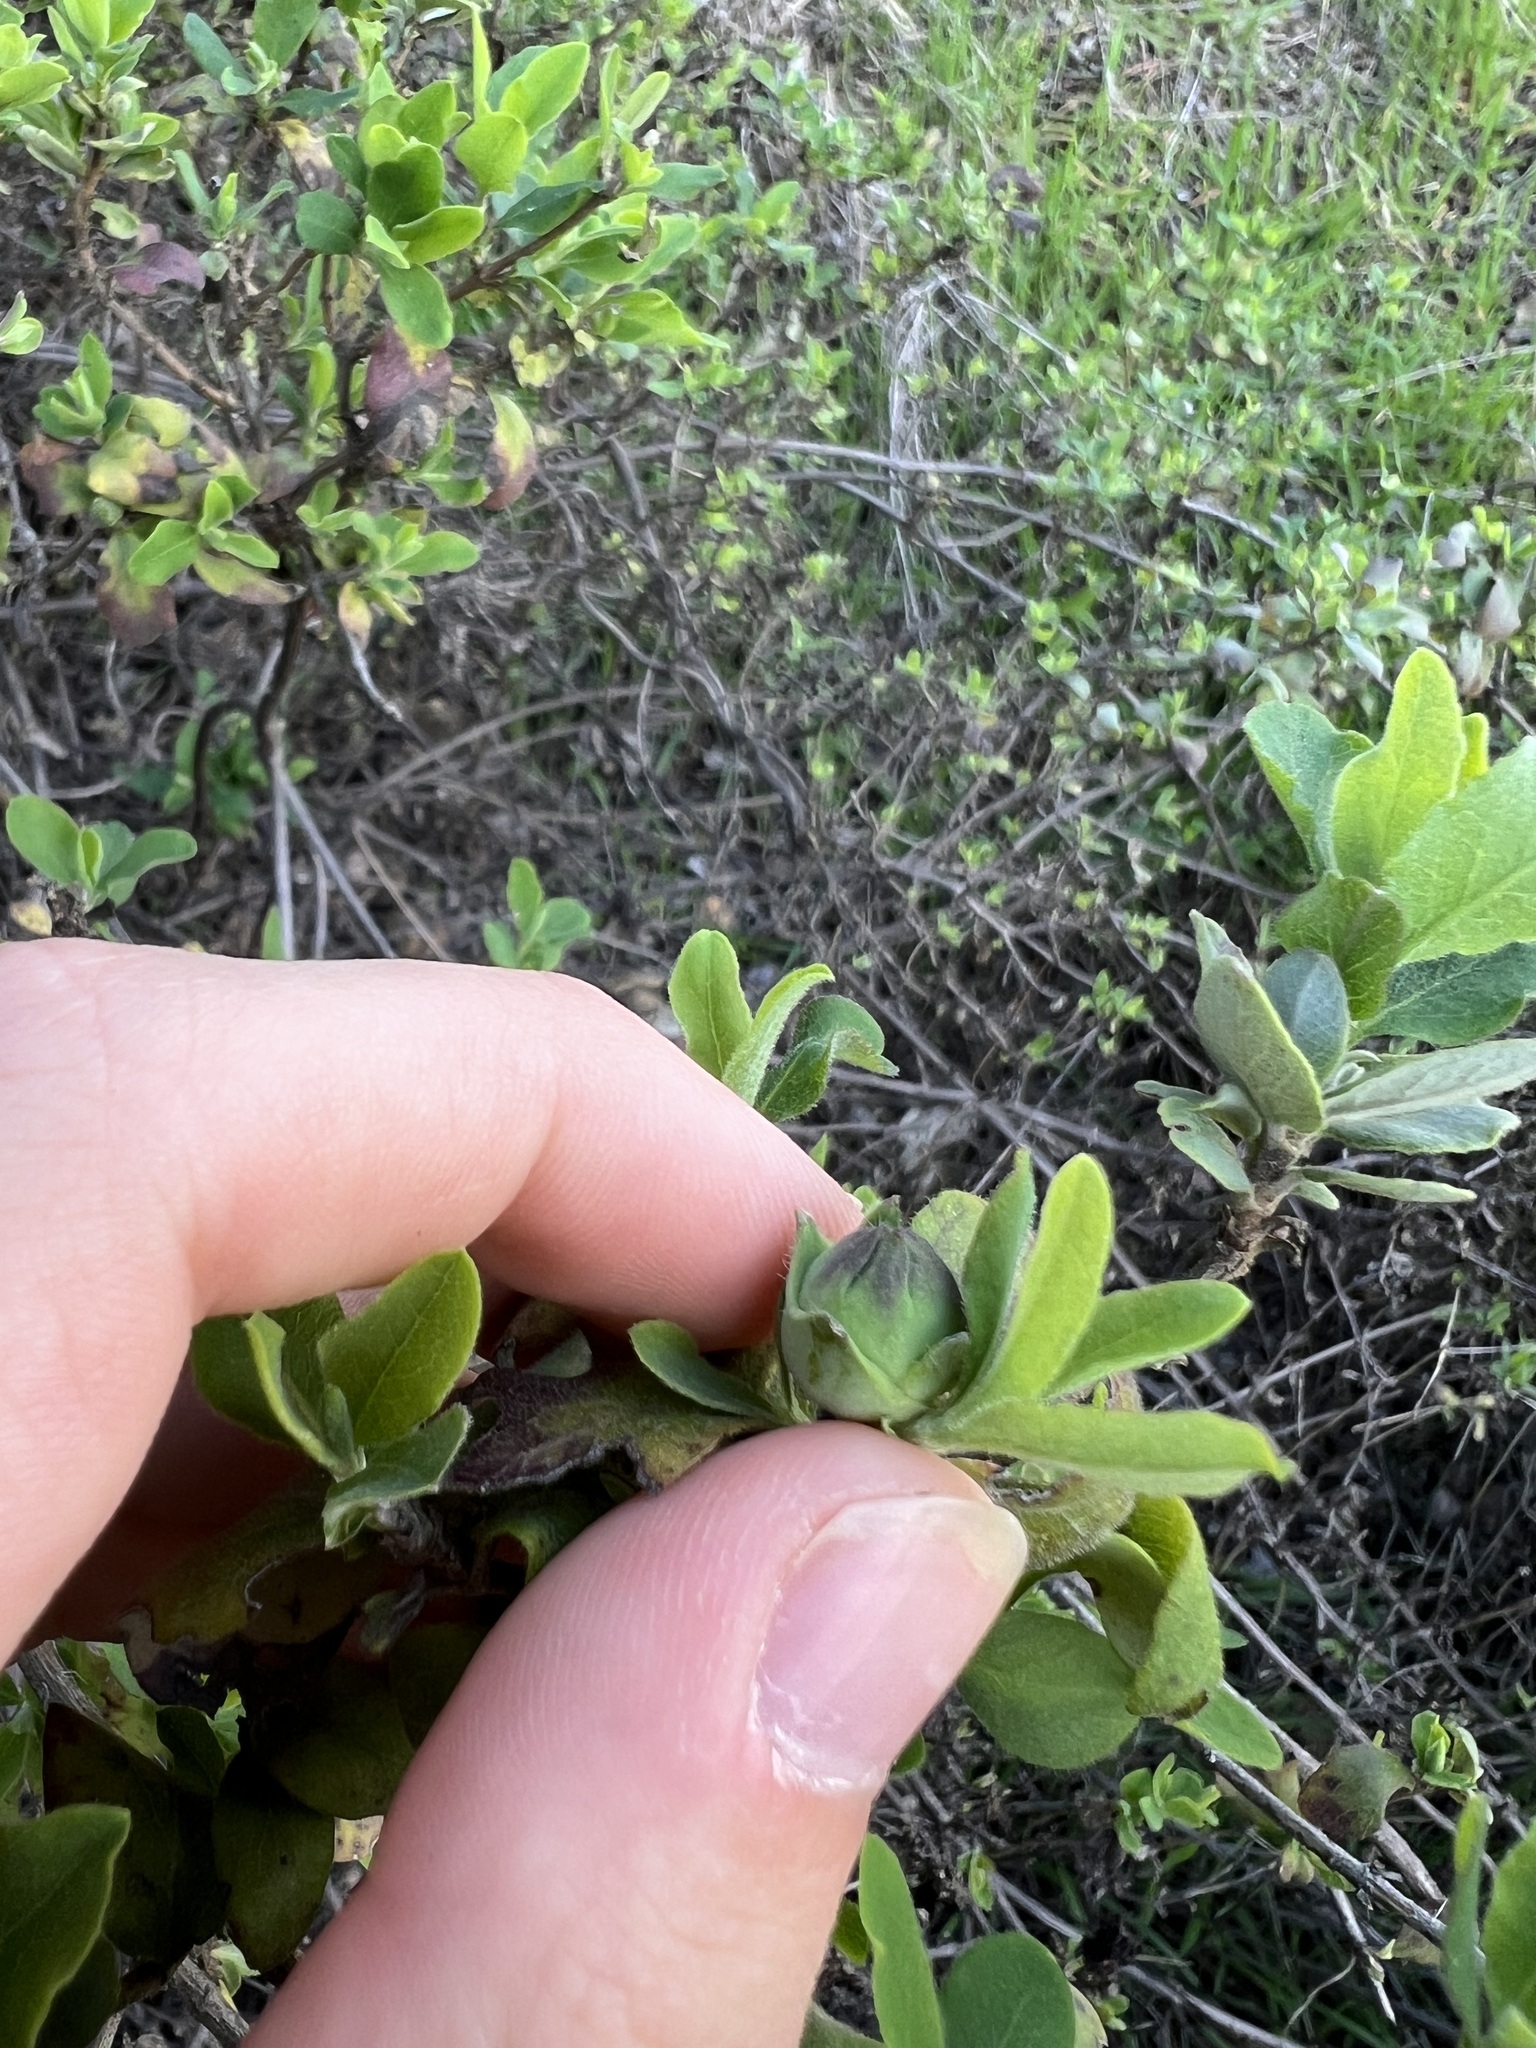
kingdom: Plantae
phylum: Tracheophyta
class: Magnoliopsida
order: Dipsacales
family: Caprifoliaceae
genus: Lonicera
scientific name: Lonicera subspicata
